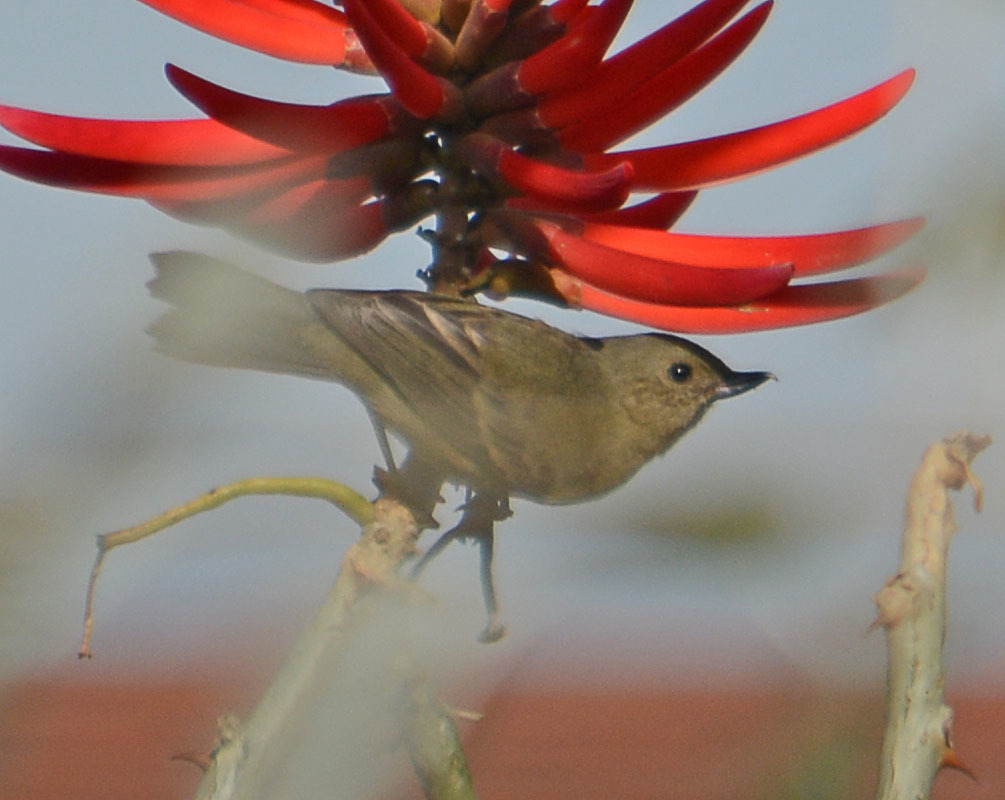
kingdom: Animalia
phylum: Chordata
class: Aves
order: Passeriformes
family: Thraupidae
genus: Diglossa
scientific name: Diglossa baritula
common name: Cinnamon-bellied flowerpiercer
